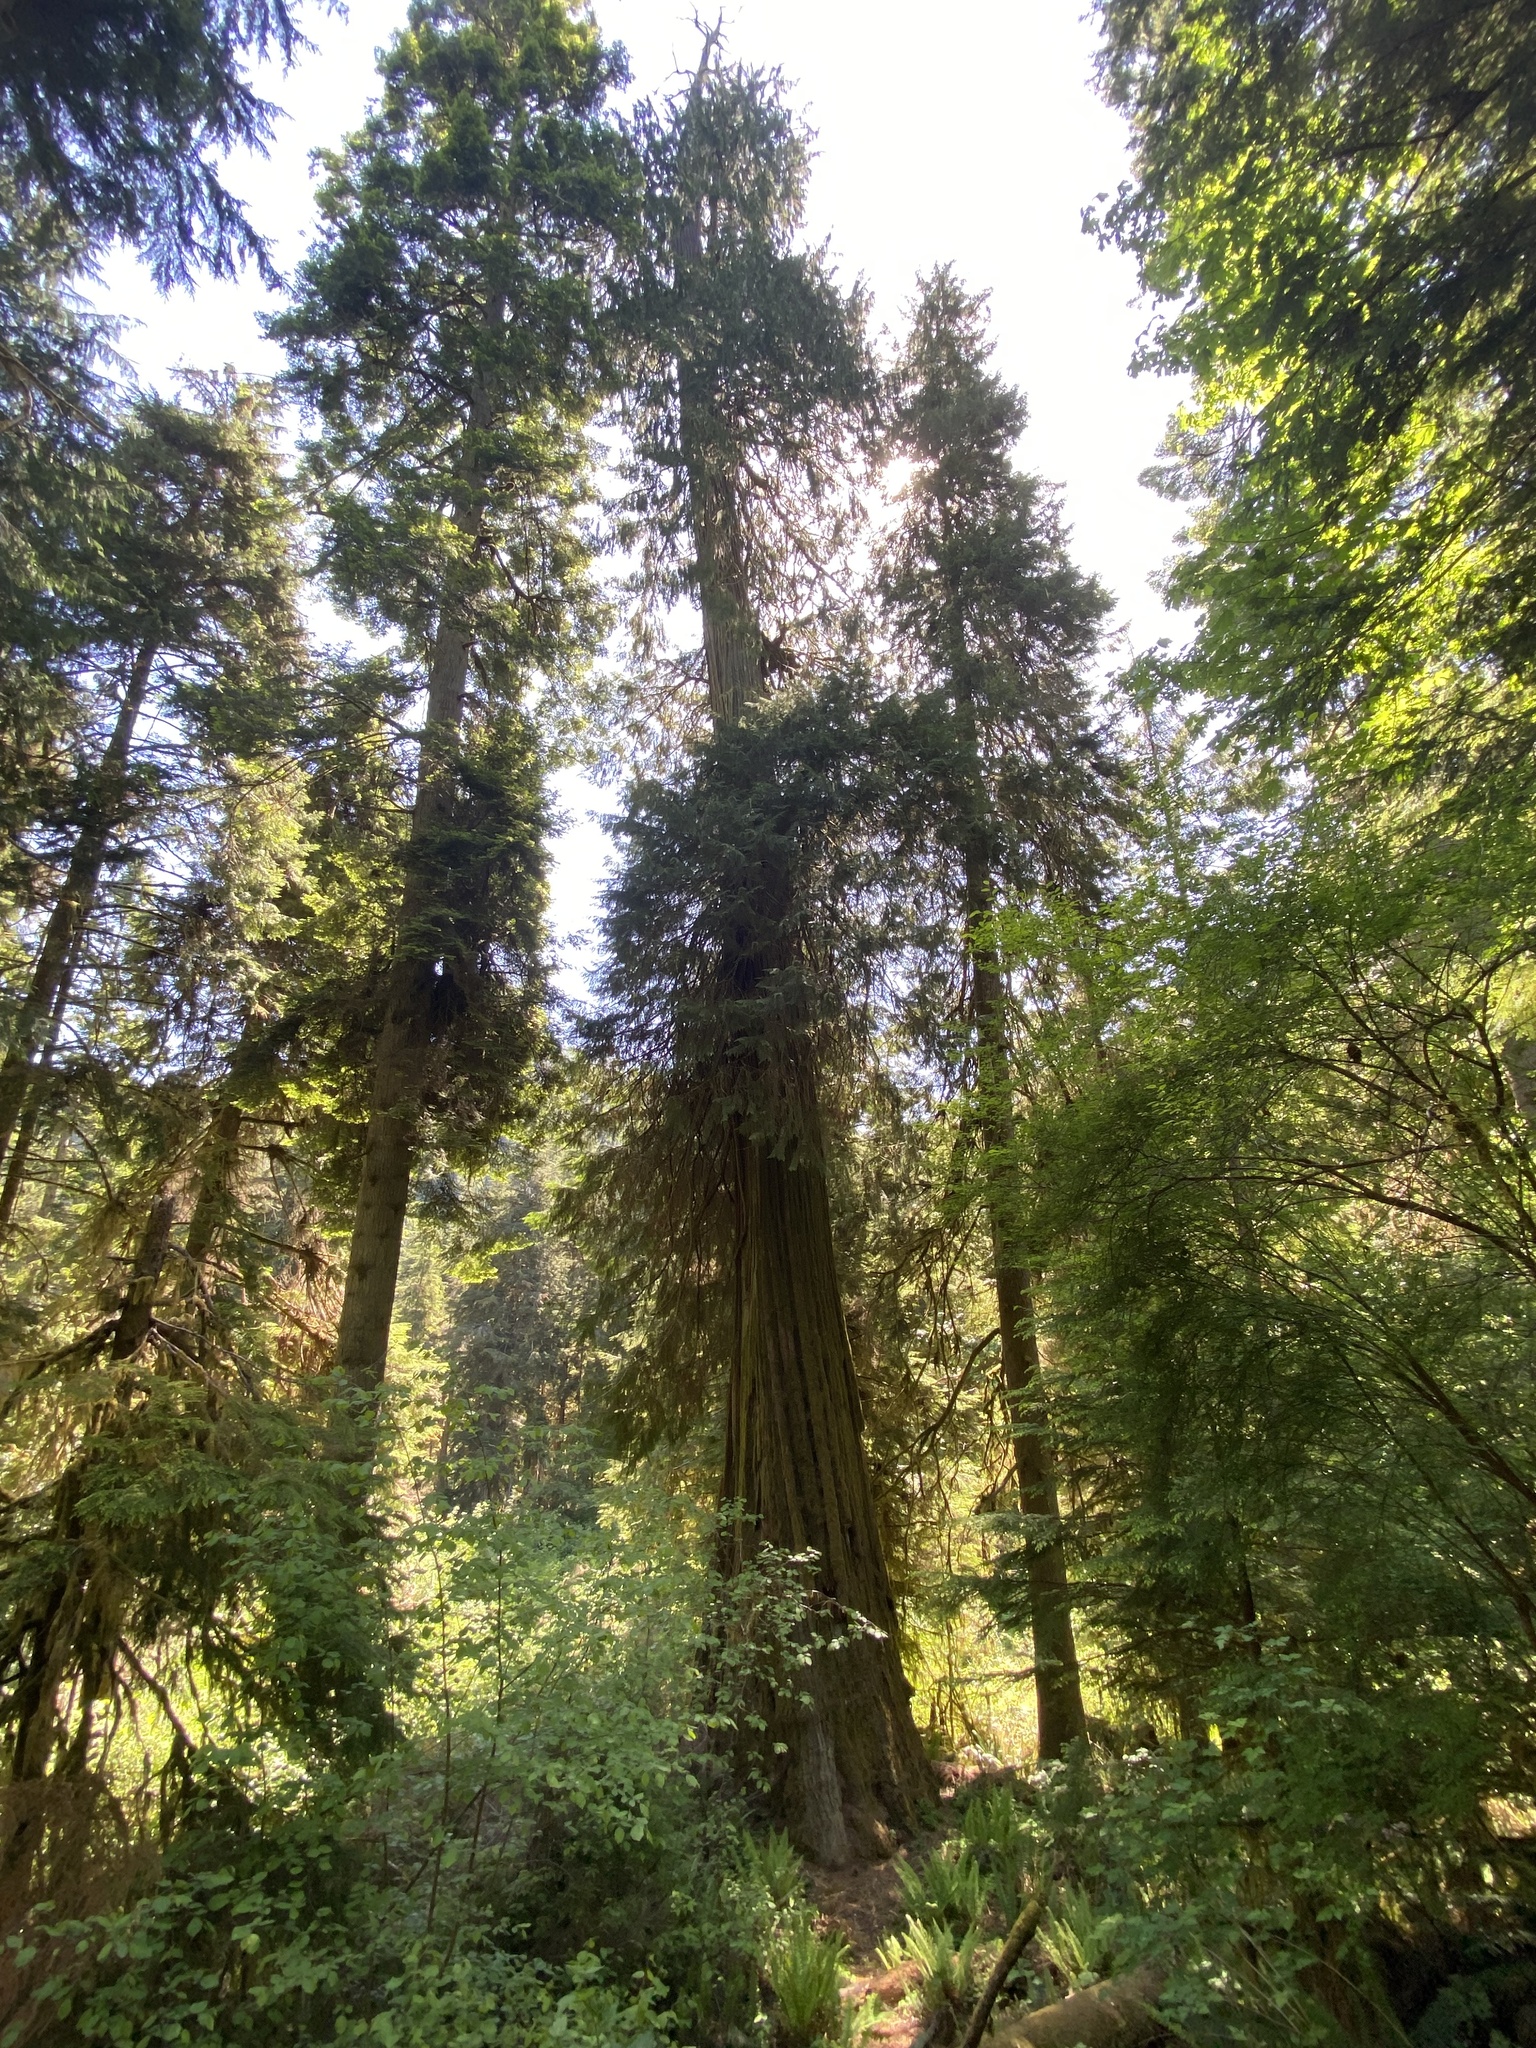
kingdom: Plantae
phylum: Tracheophyta
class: Pinopsida
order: Pinales
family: Cupressaceae
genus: Chamaecyparis
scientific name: Chamaecyparis lawsoniana
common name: Lawson's cypress
